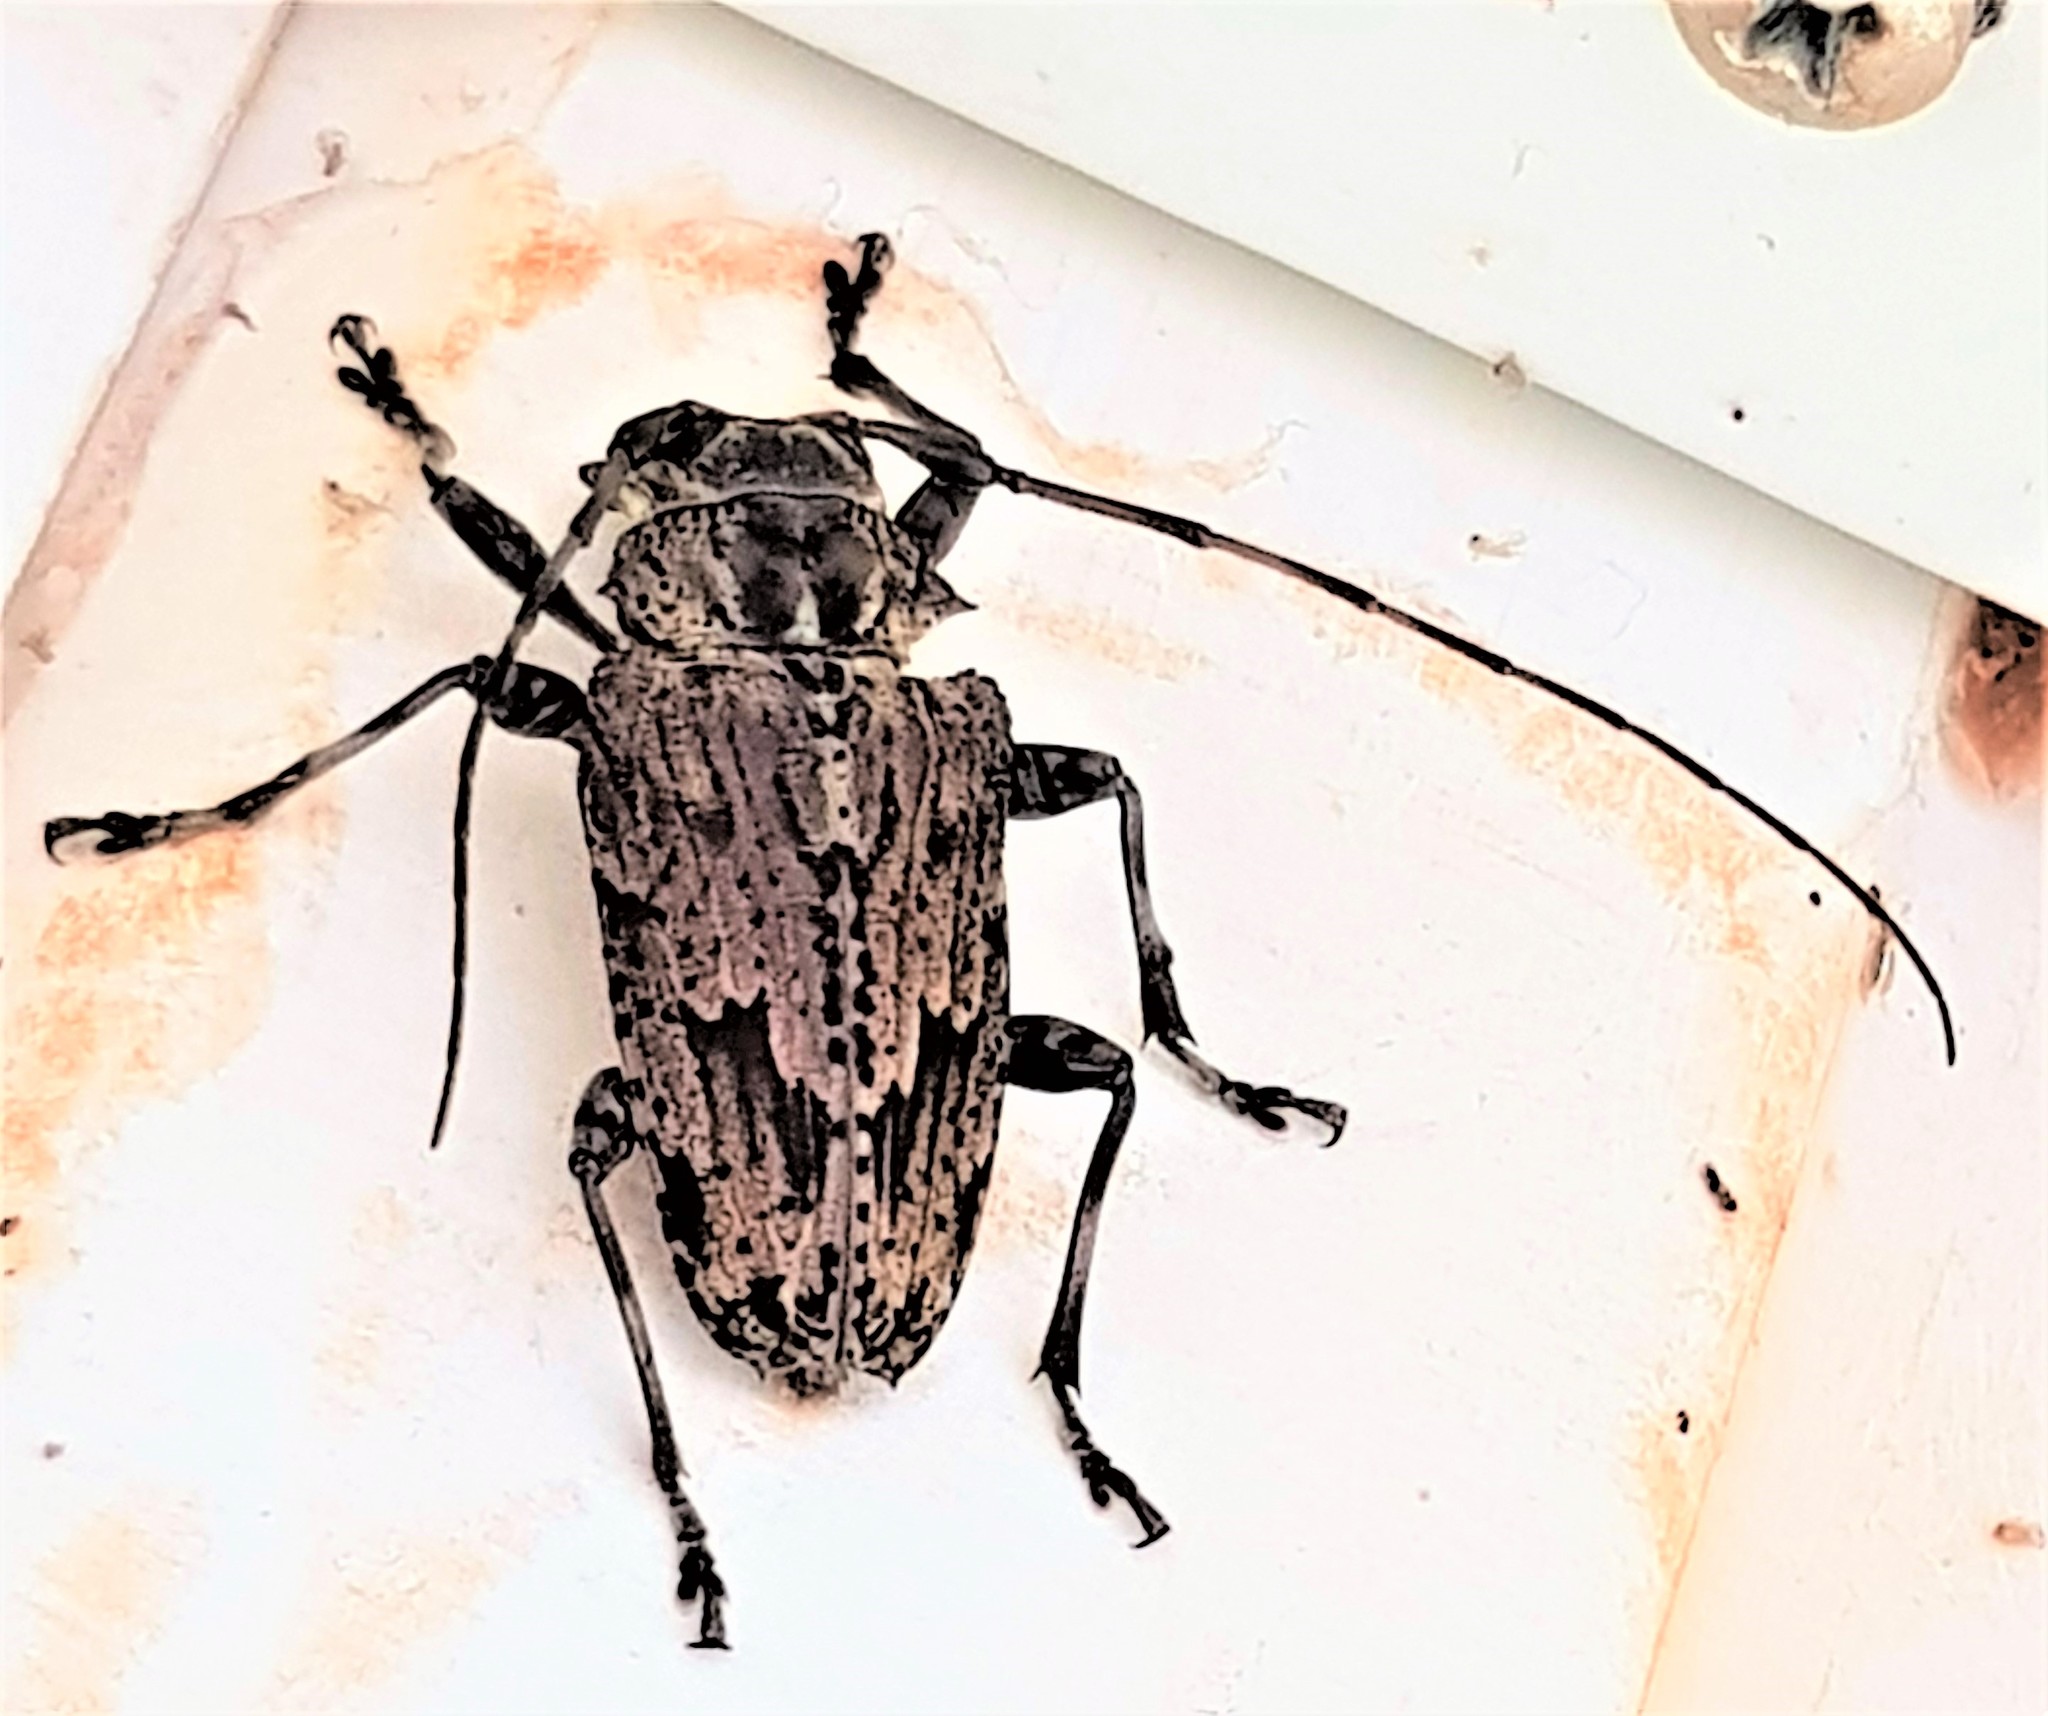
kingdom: Animalia
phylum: Arthropoda
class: Insecta
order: Coleoptera
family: Cerambycidae
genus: Dryoctenes
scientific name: Dryoctenes scrupulosus
